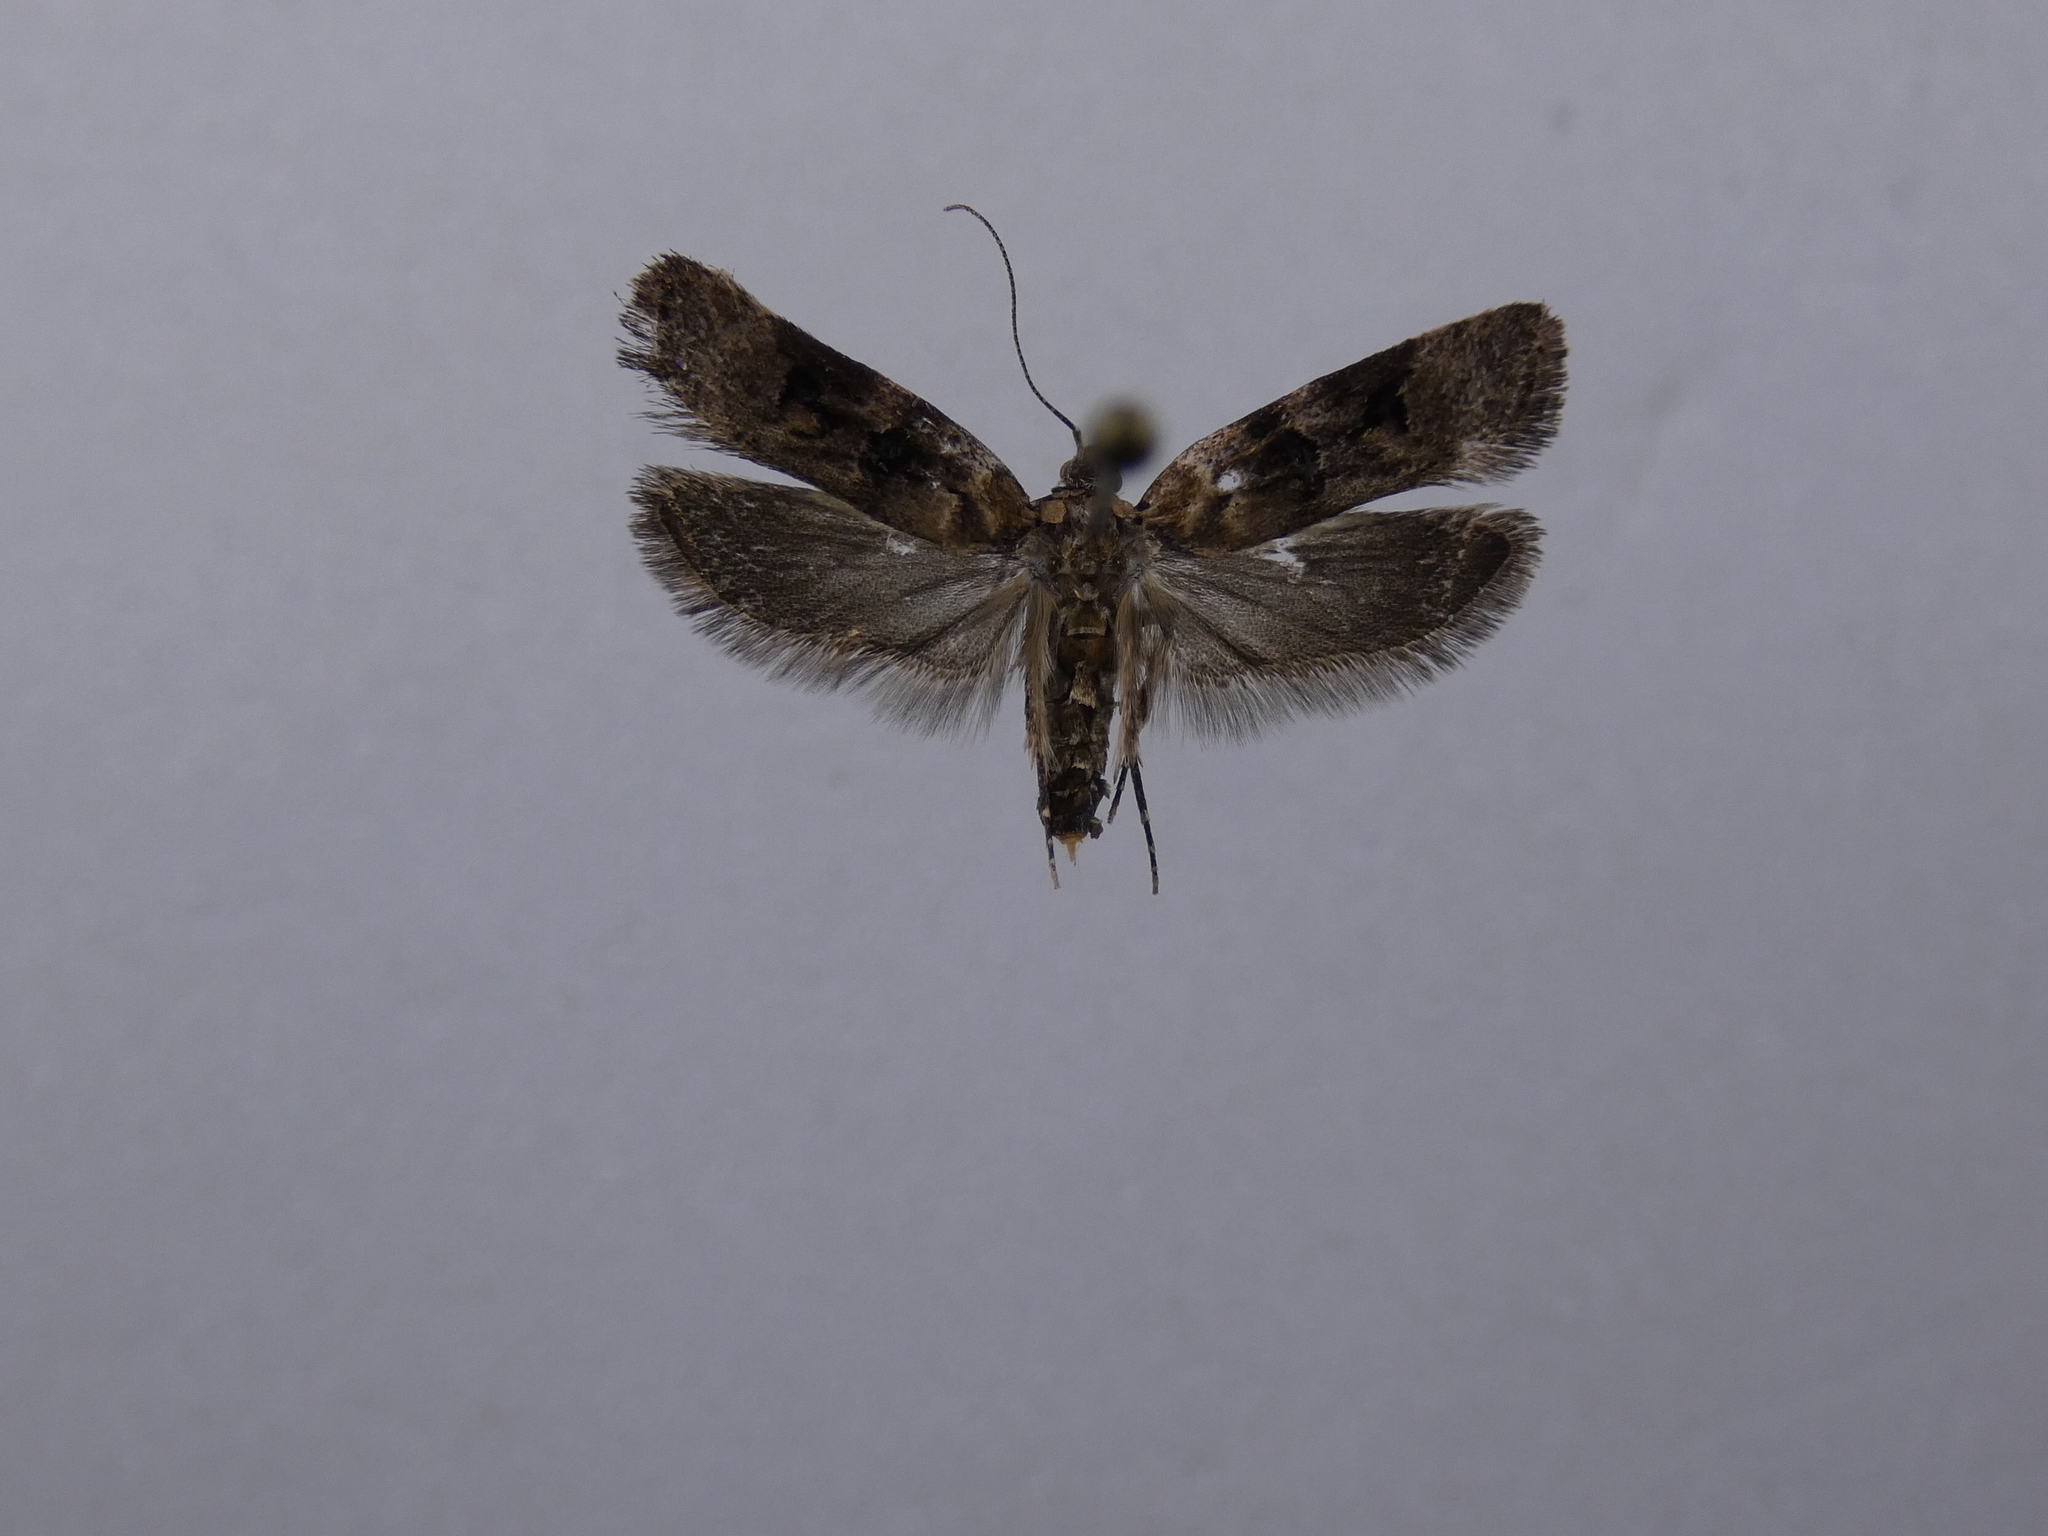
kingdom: Animalia
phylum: Arthropoda
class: Insecta
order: Lepidoptera
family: Oecophoridae
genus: Izatha
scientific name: Izatha metadelta
